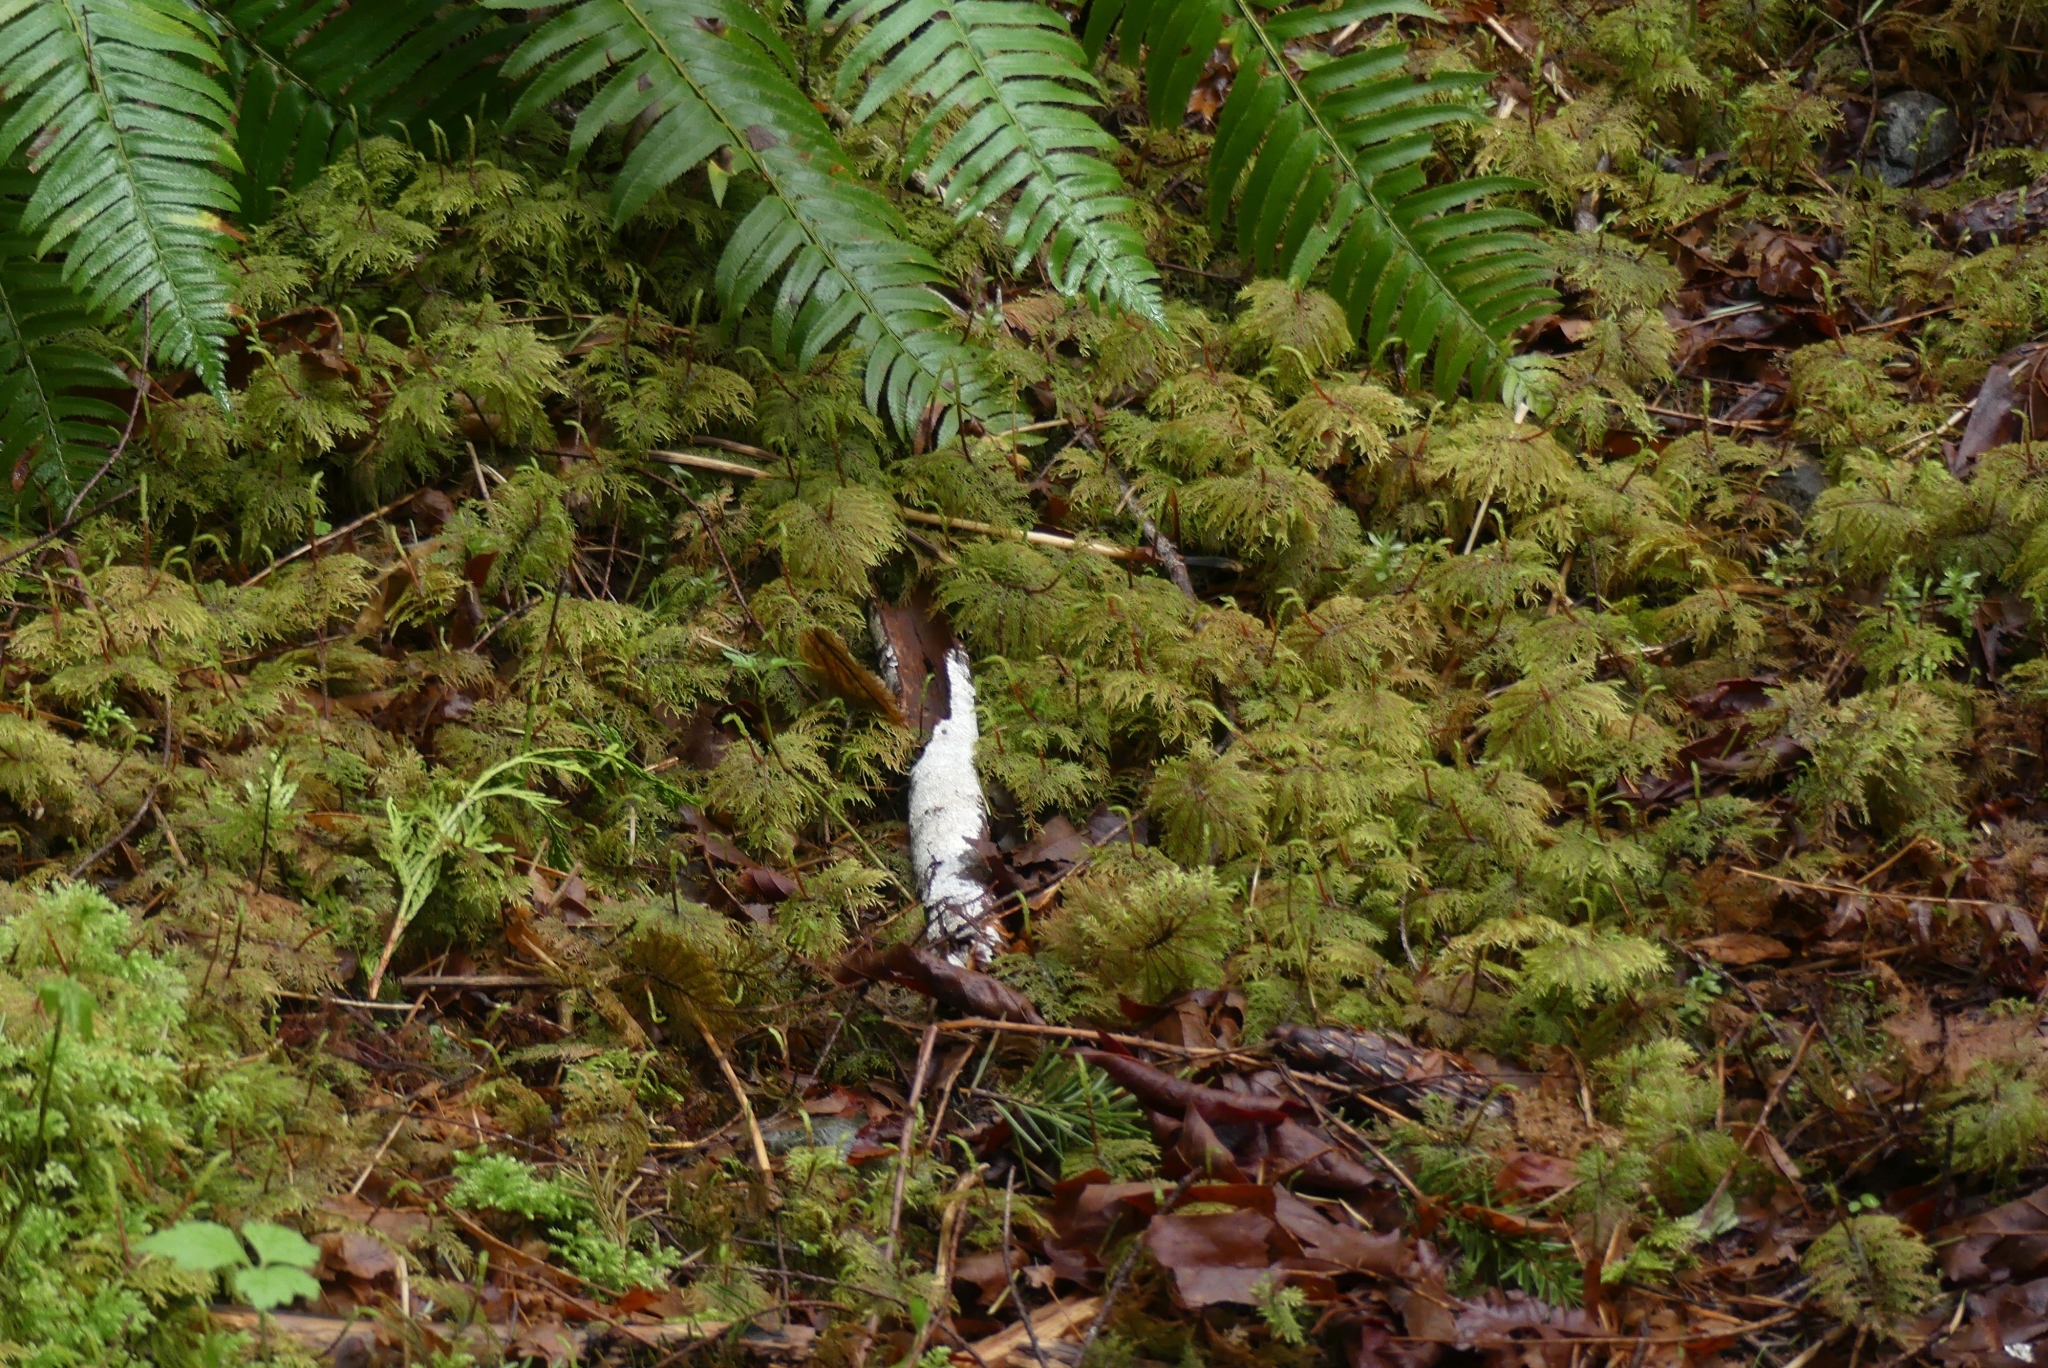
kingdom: Plantae
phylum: Bryophyta
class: Bryopsida
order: Hypnales
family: Hylocomiaceae
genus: Hylocomium
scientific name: Hylocomium splendens
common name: Stairstep moss
